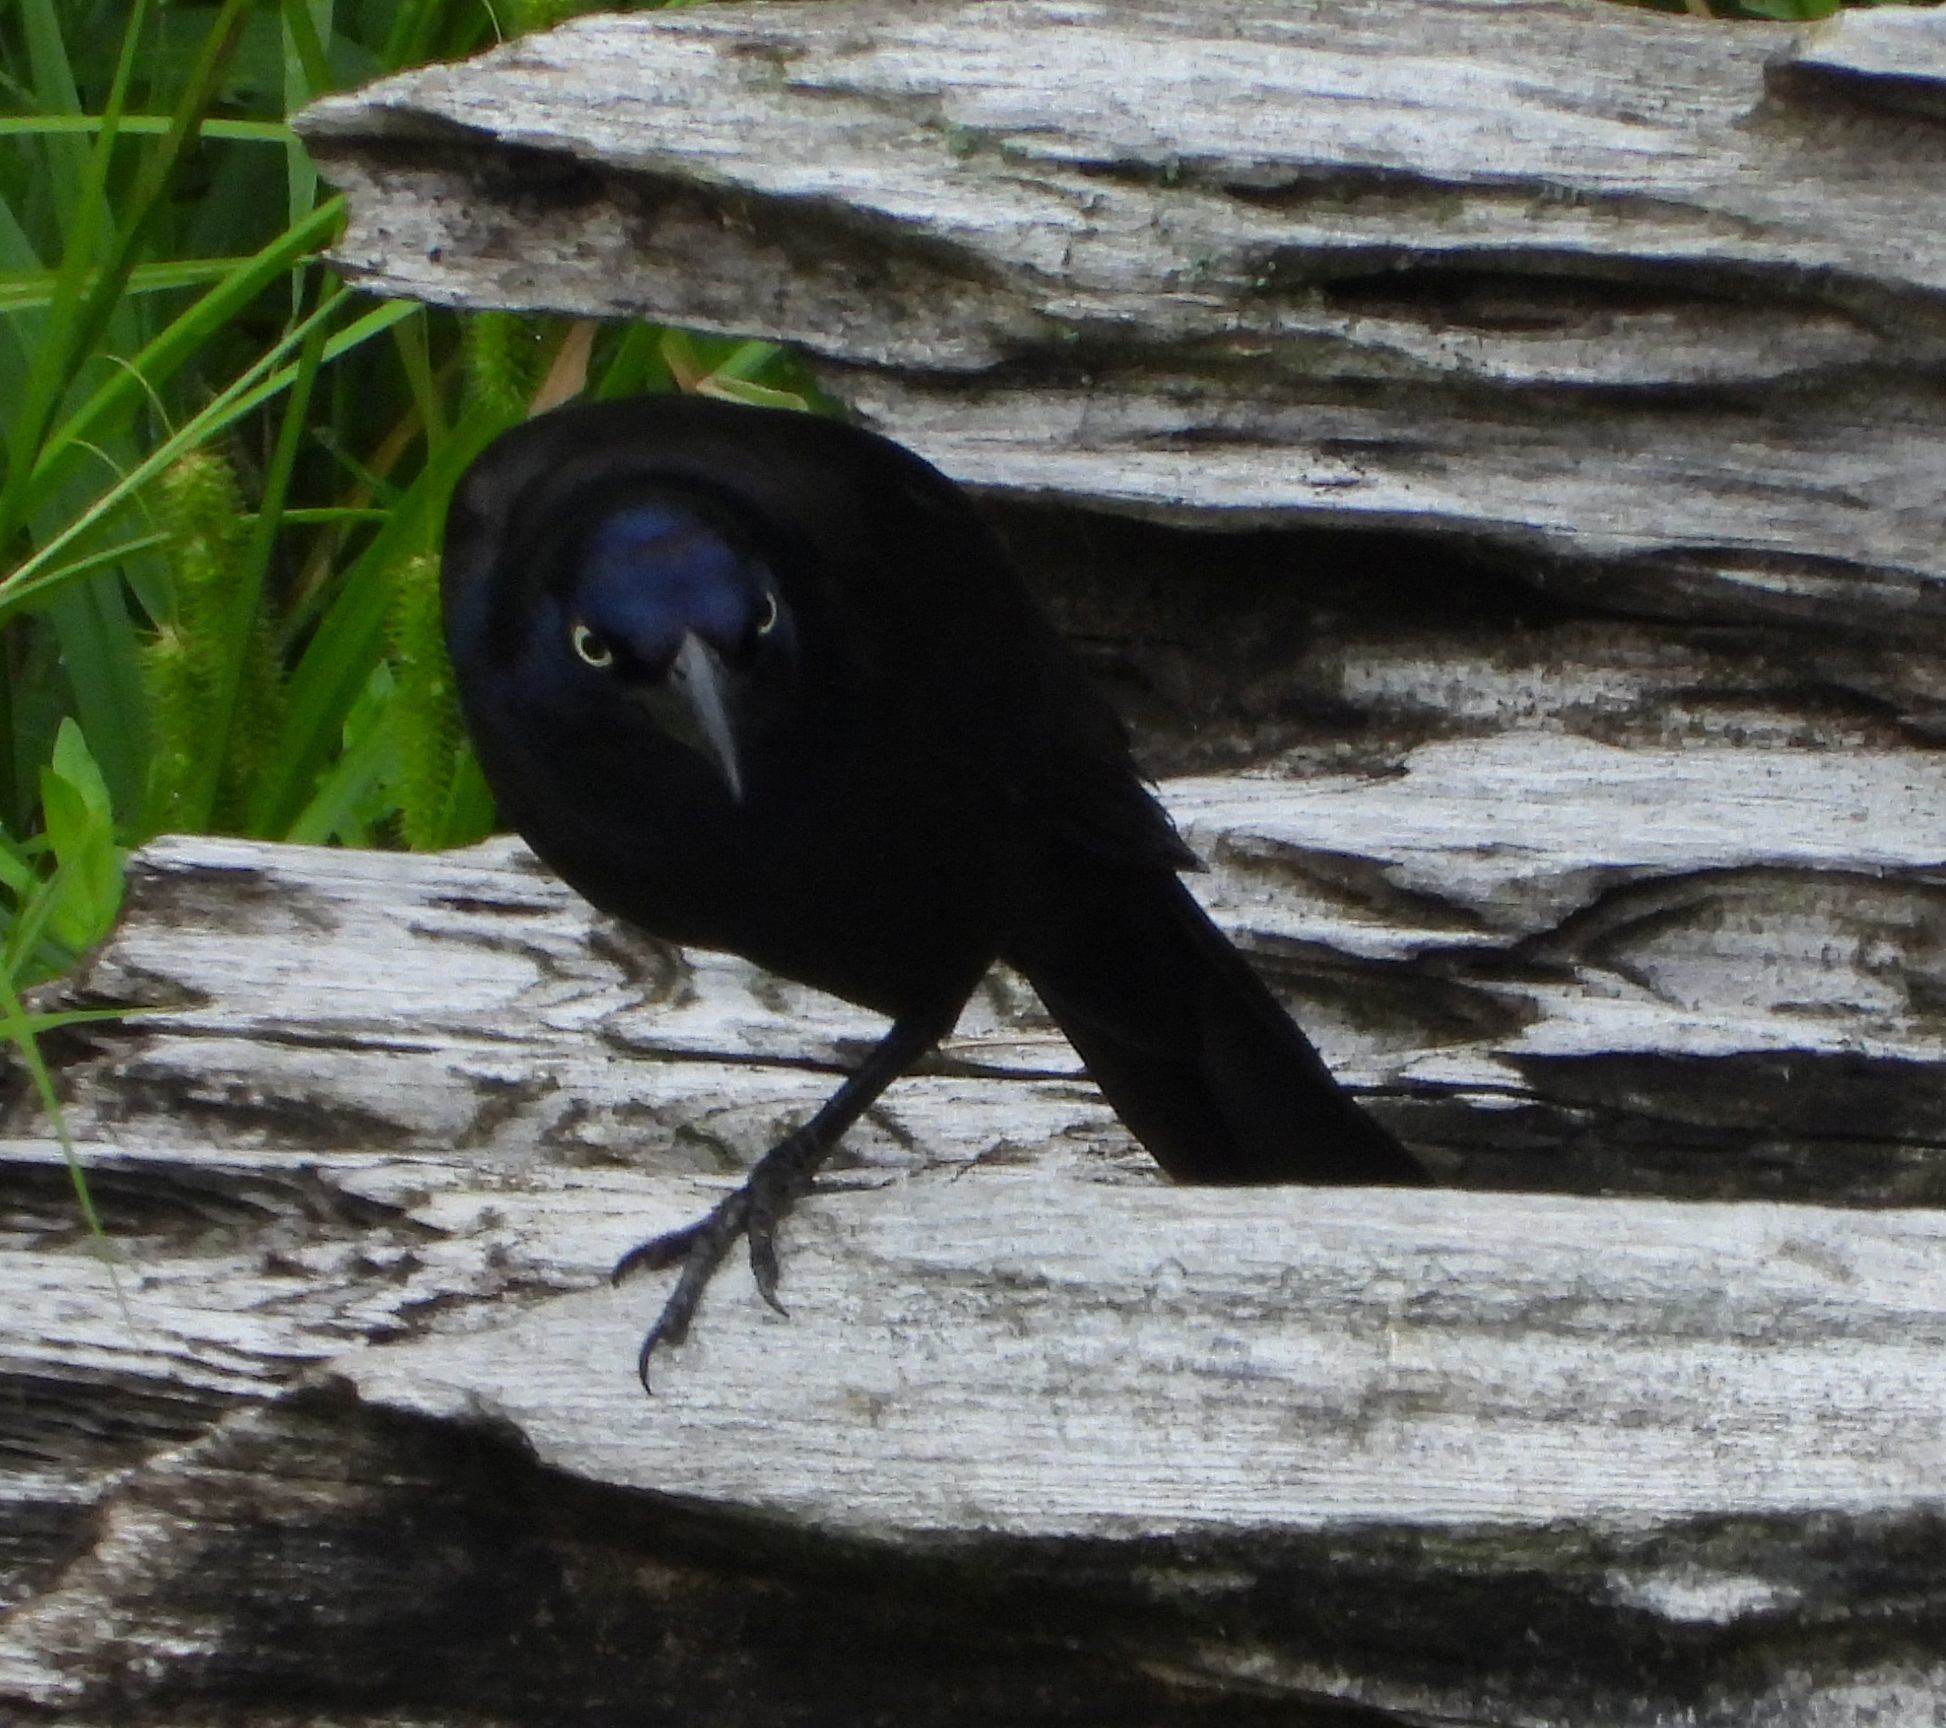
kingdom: Animalia
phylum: Chordata
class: Aves
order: Passeriformes
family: Icteridae
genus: Quiscalus
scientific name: Quiscalus quiscula
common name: Common grackle
